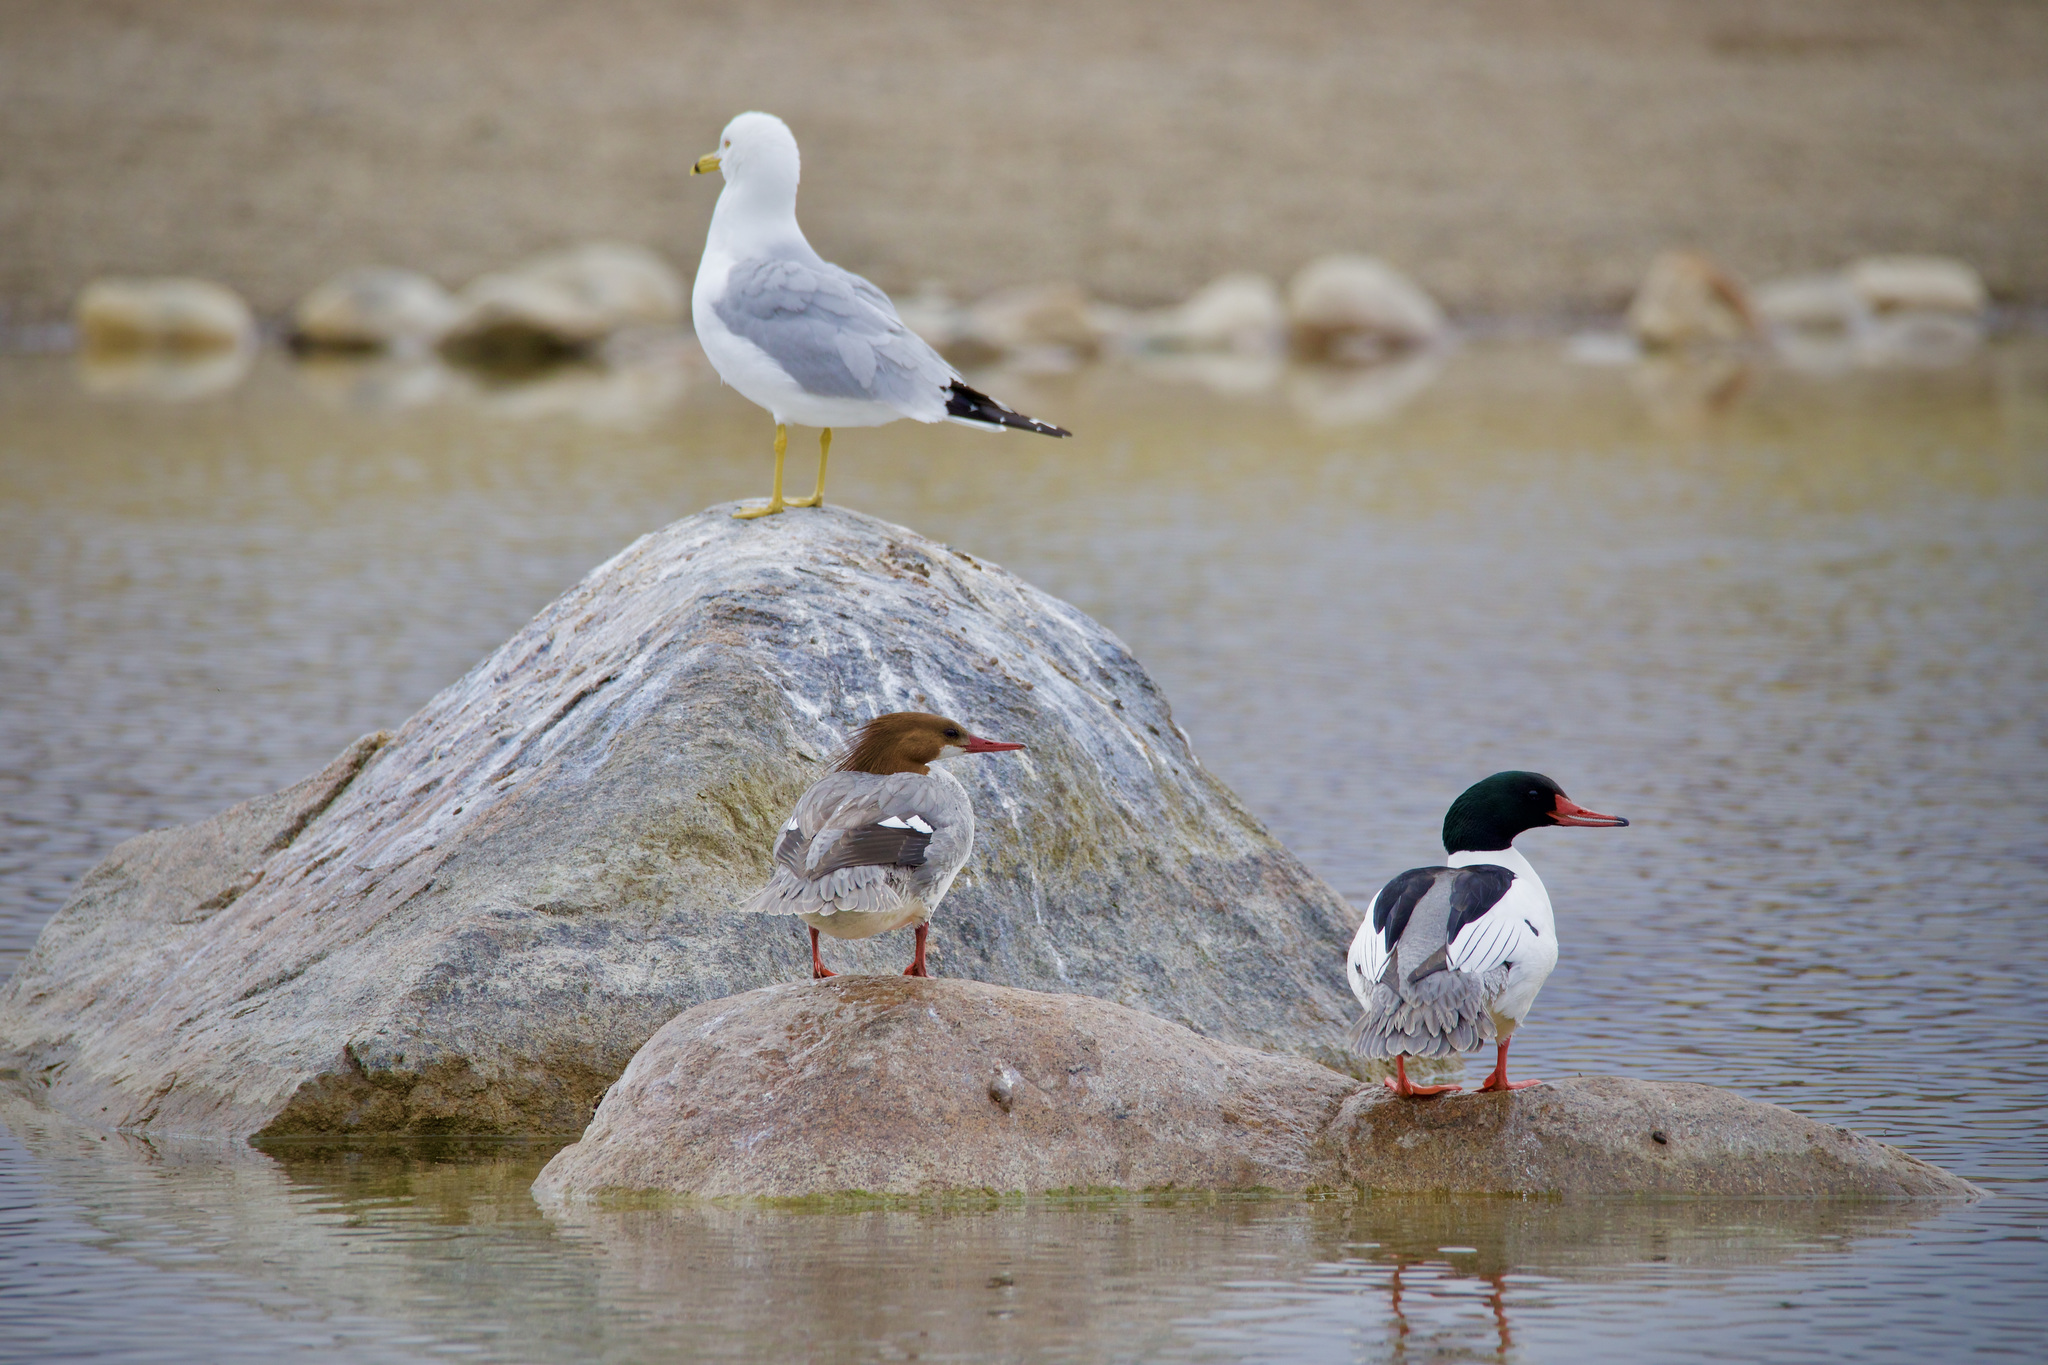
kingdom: Animalia
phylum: Chordata
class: Aves
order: Anseriformes
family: Anatidae
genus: Mergus
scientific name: Mergus merganser
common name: Common merganser
